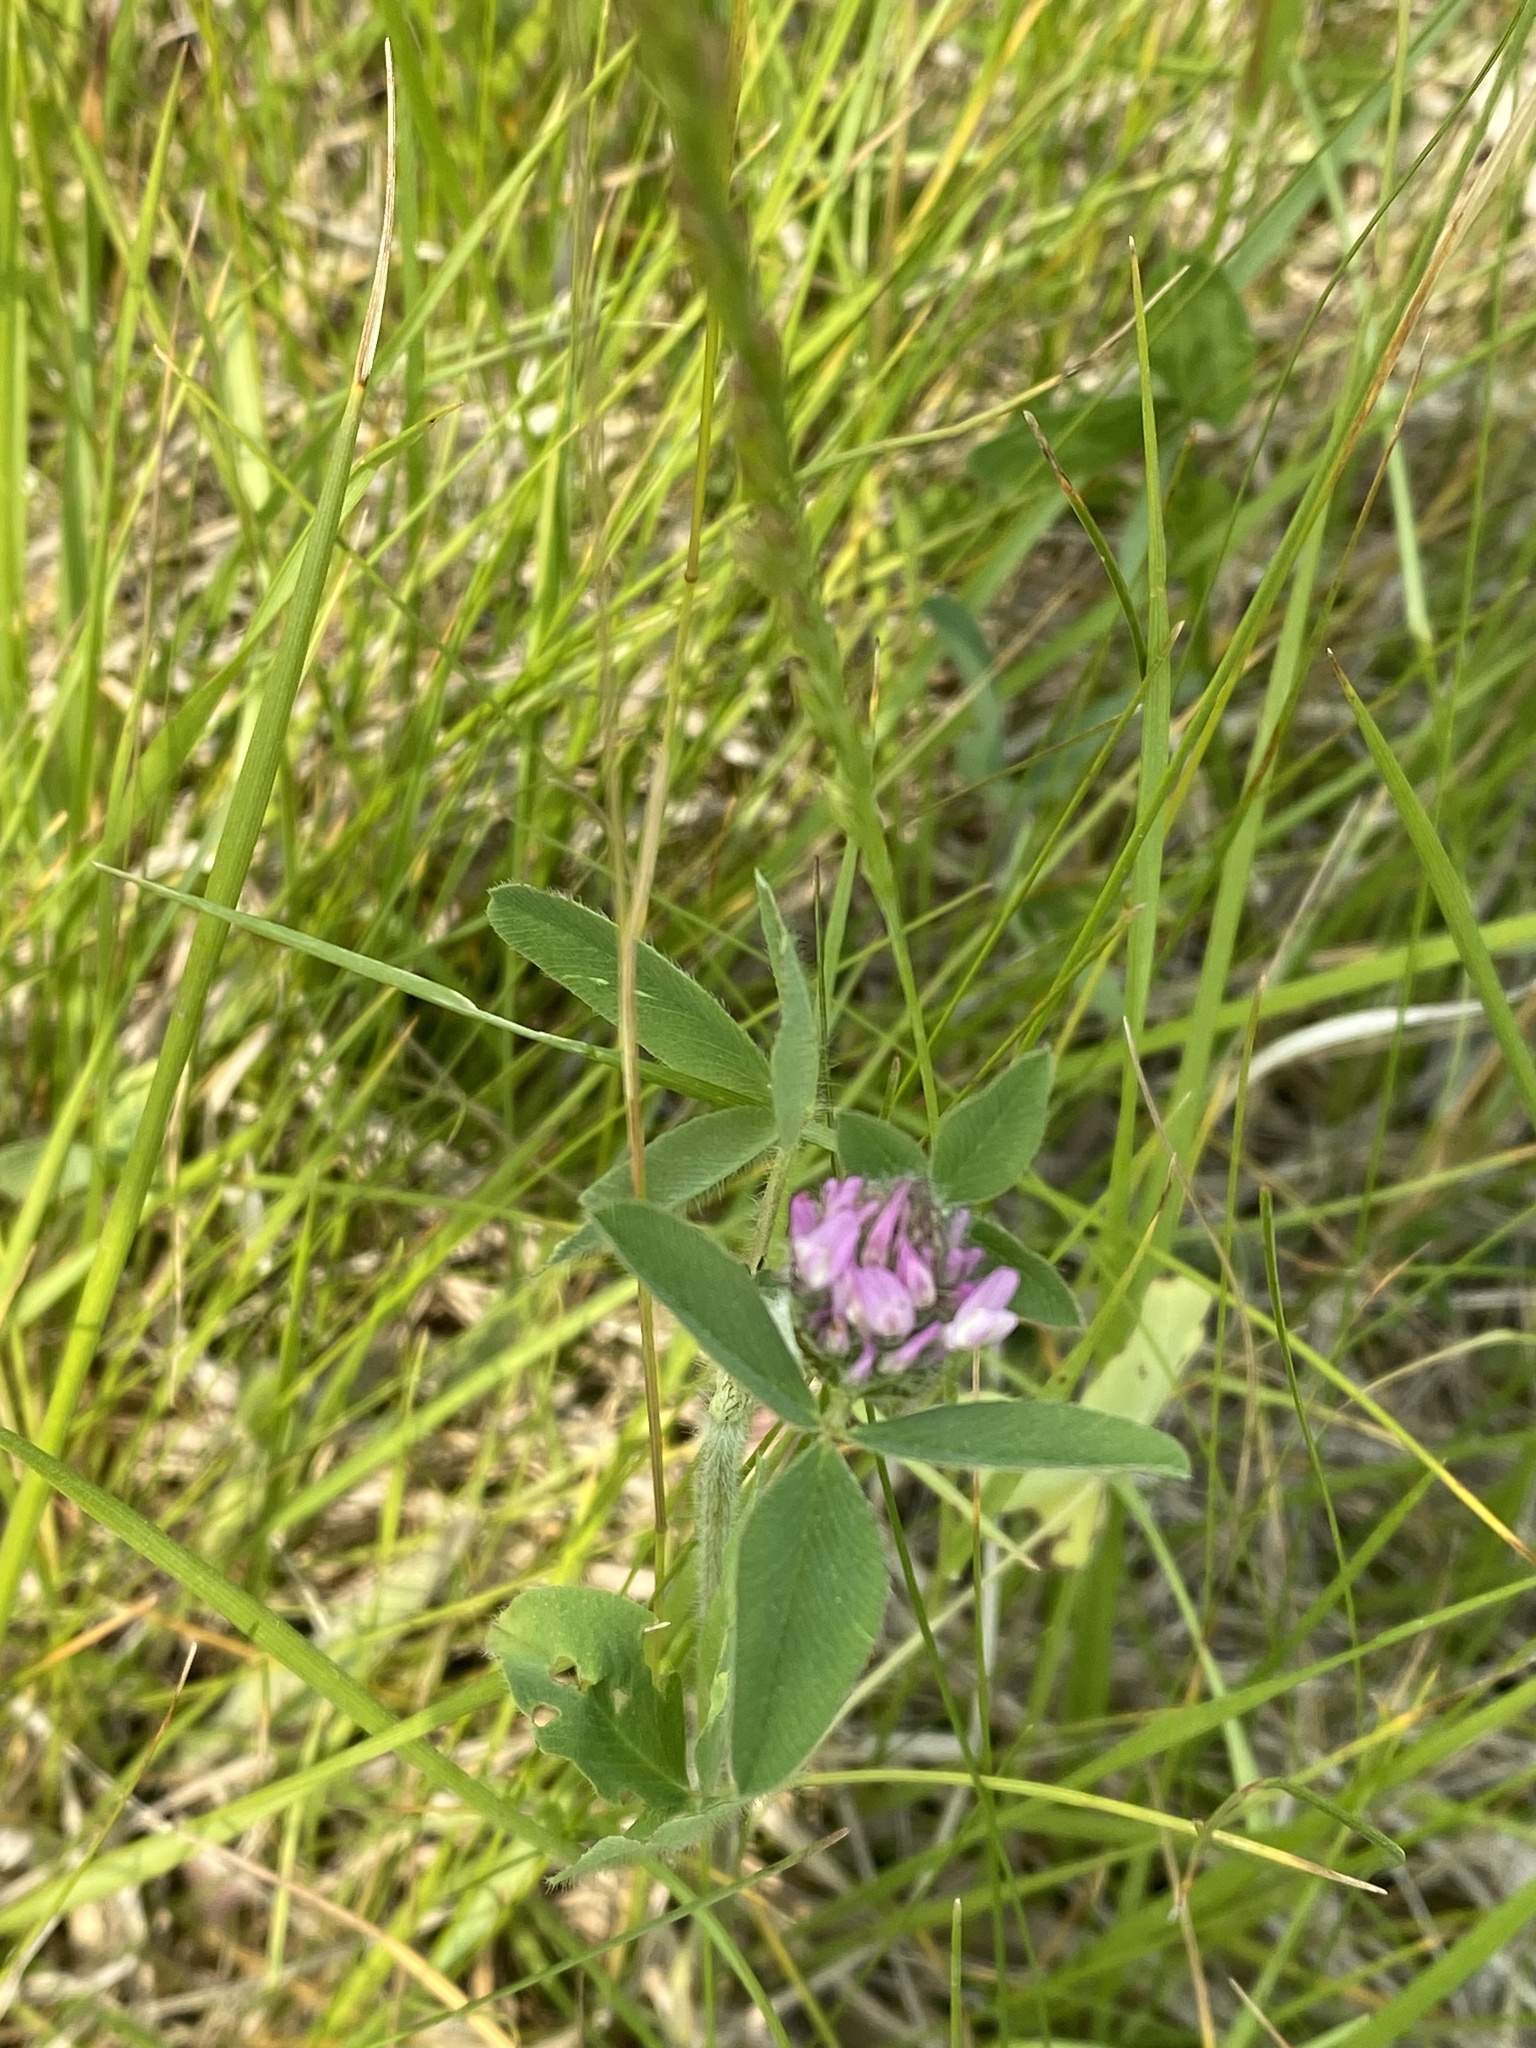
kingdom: Plantae
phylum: Tracheophyta
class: Magnoliopsida
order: Fabales
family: Fabaceae
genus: Trifolium
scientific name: Trifolium pratense
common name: Red clover
